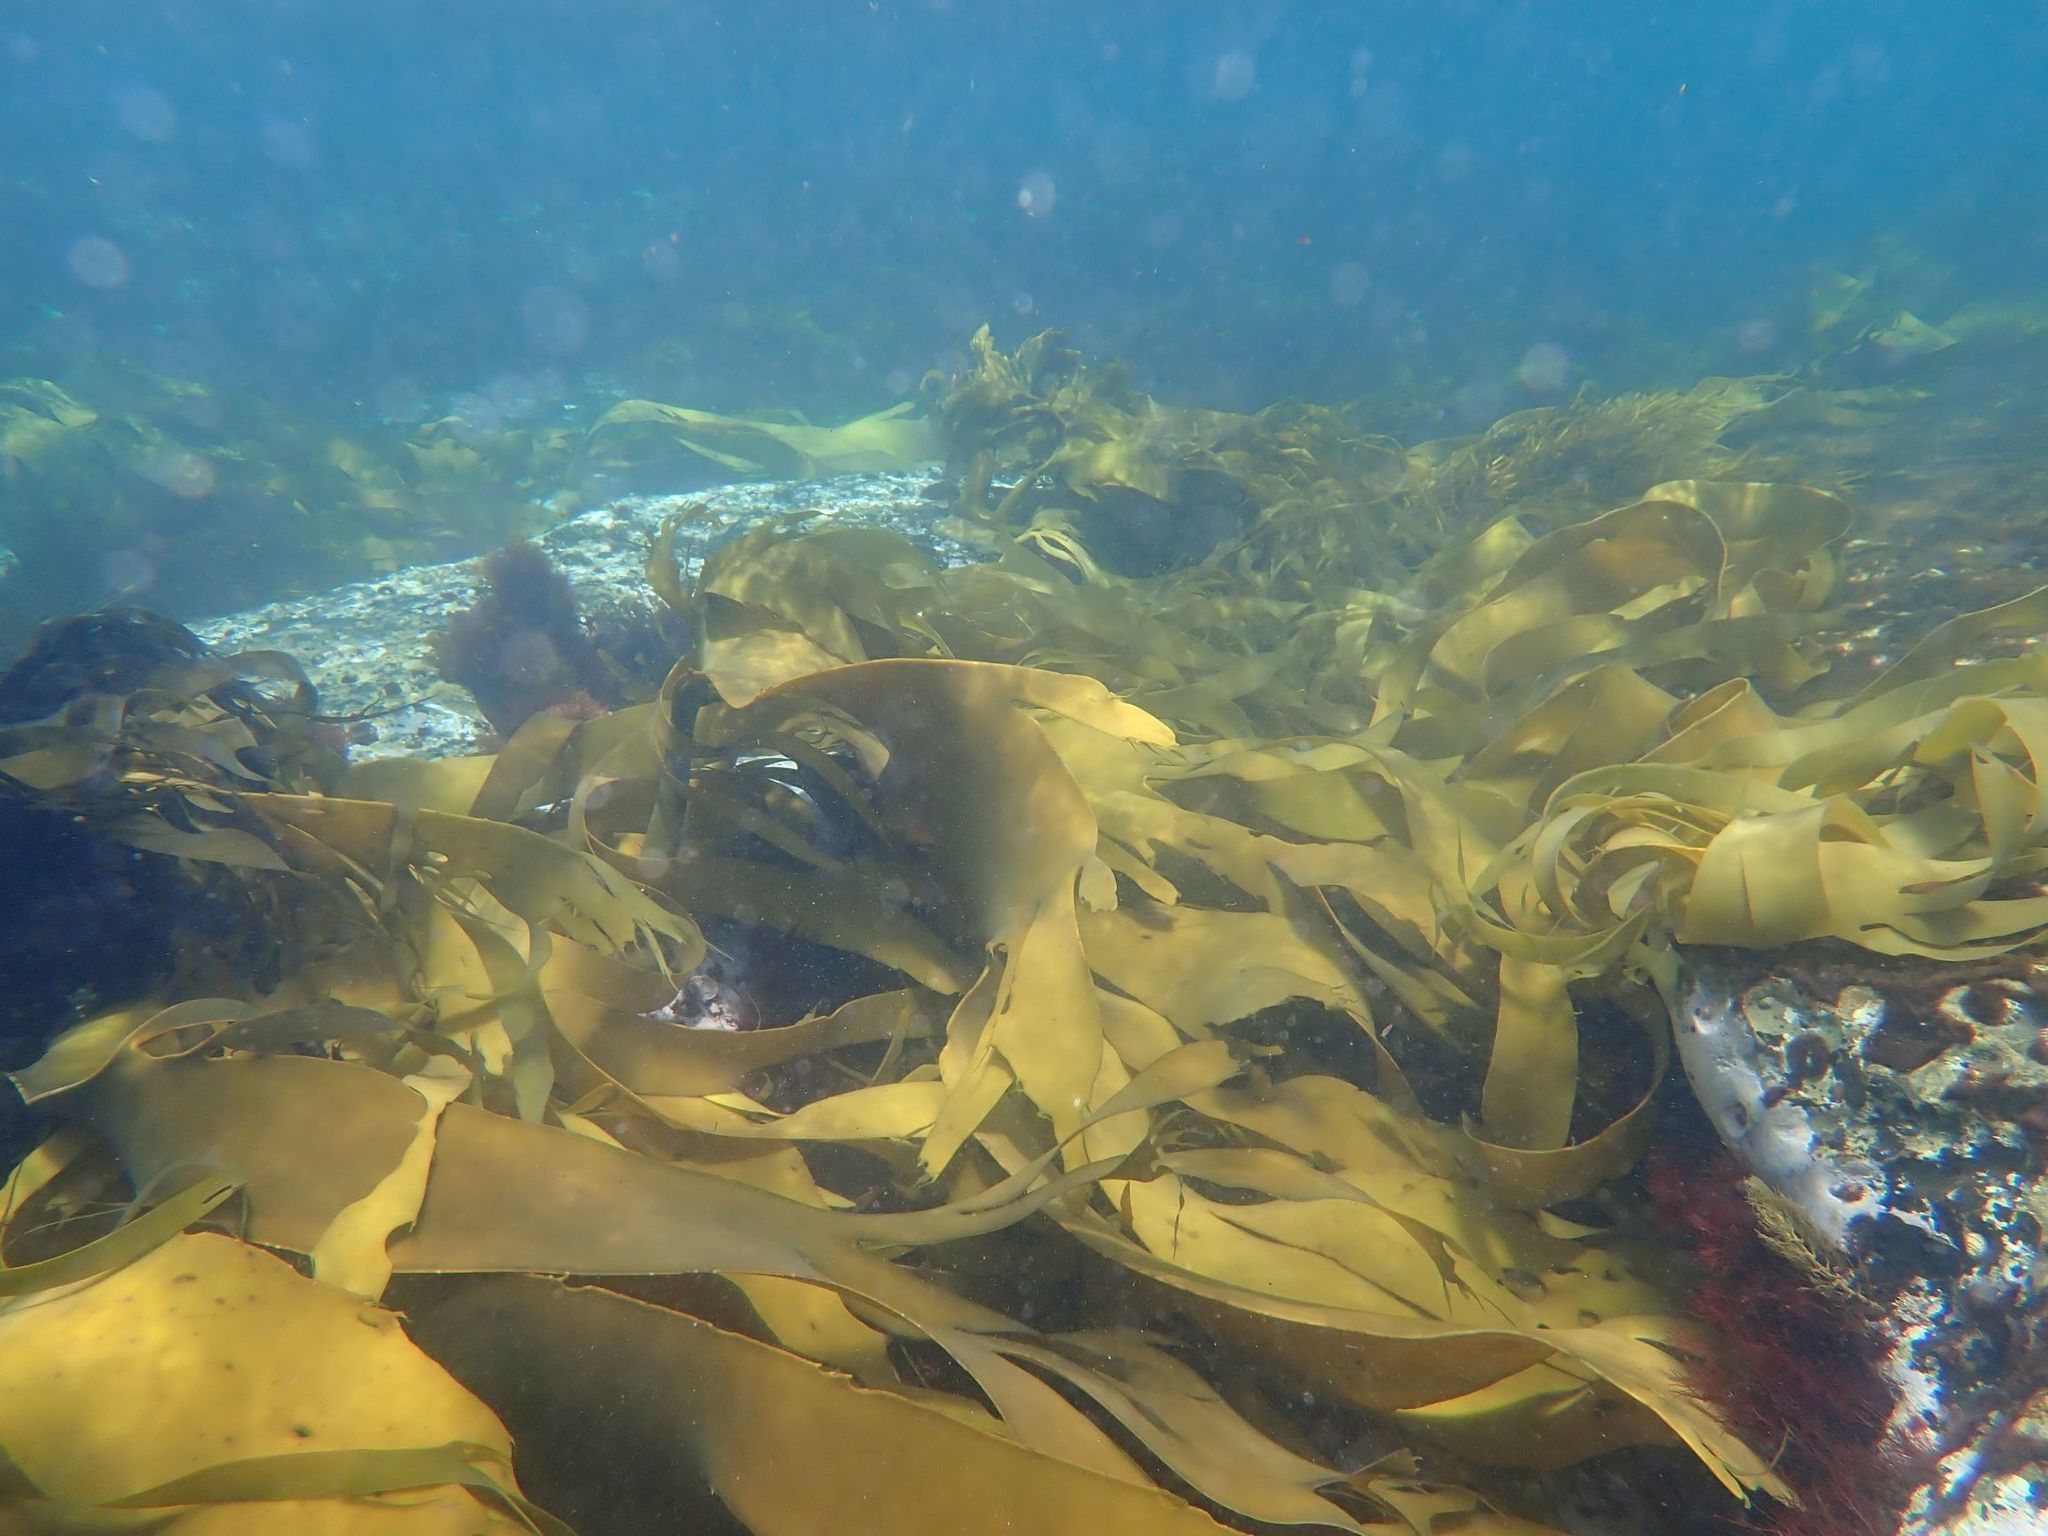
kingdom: Chromista
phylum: Ochrophyta
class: Phaeophyceae
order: Fucales
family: Durvillaeaceae
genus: Durvillaea
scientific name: Durvillaea
